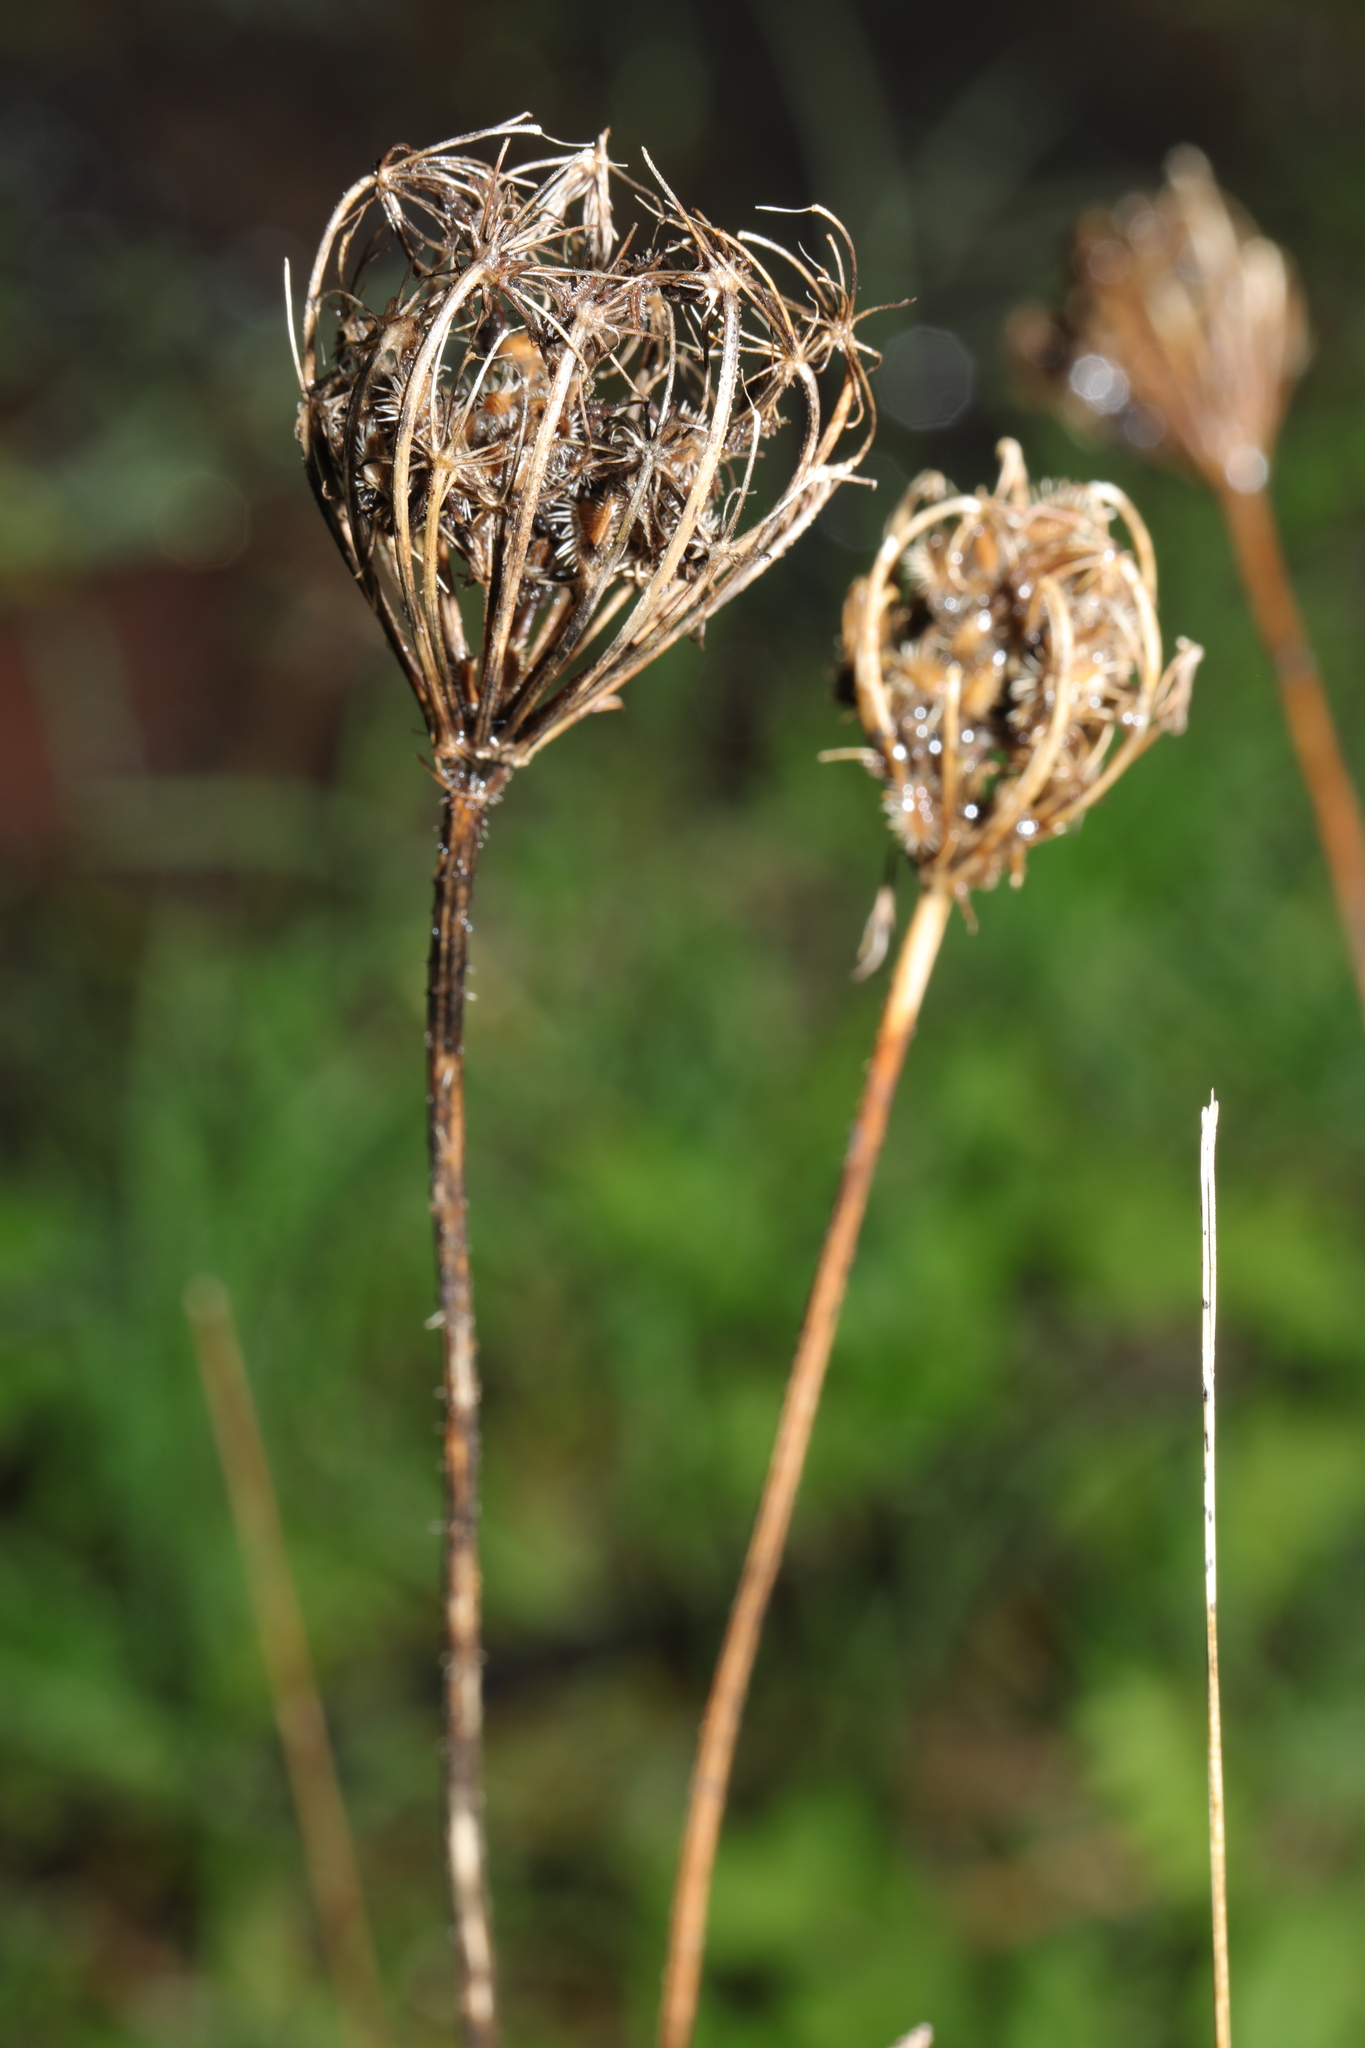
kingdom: Plantae
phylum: Tracheophyta
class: Magnoliopsida
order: Apiales
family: Apiaceae
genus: Daucus
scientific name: Daucus carota
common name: Wild carrot
